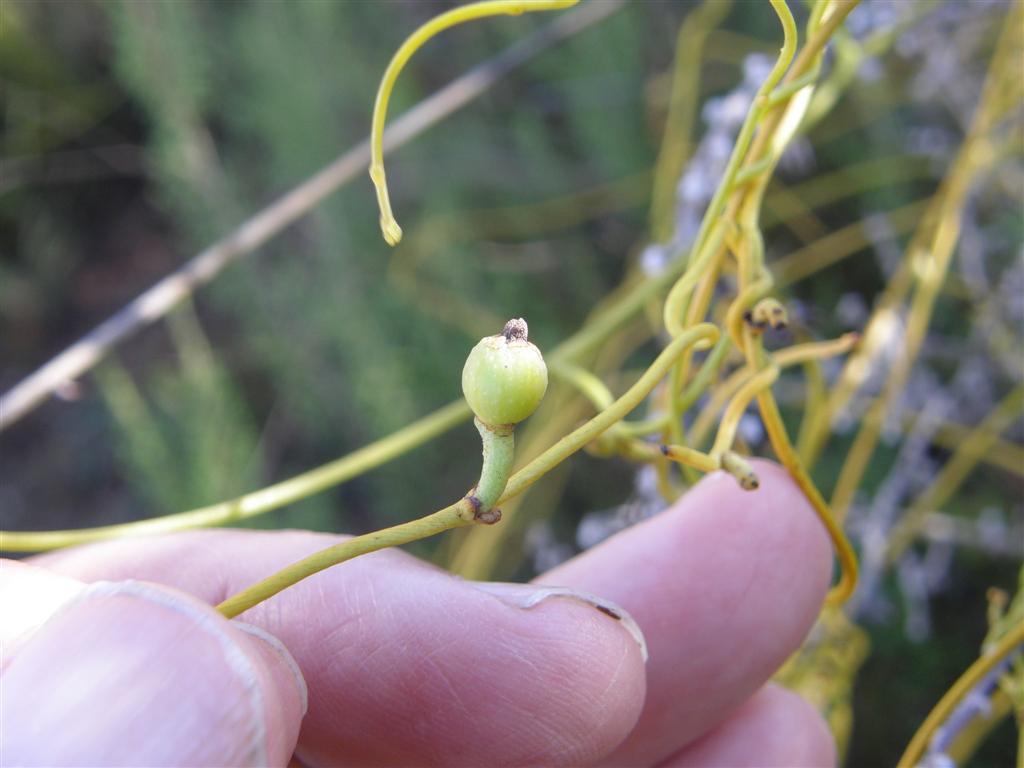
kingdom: Plantae
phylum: Tracheophyta
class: Magnoliopsida
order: Laurales
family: Lauraceae
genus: Cassytha
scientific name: Cassytha ciliolata
